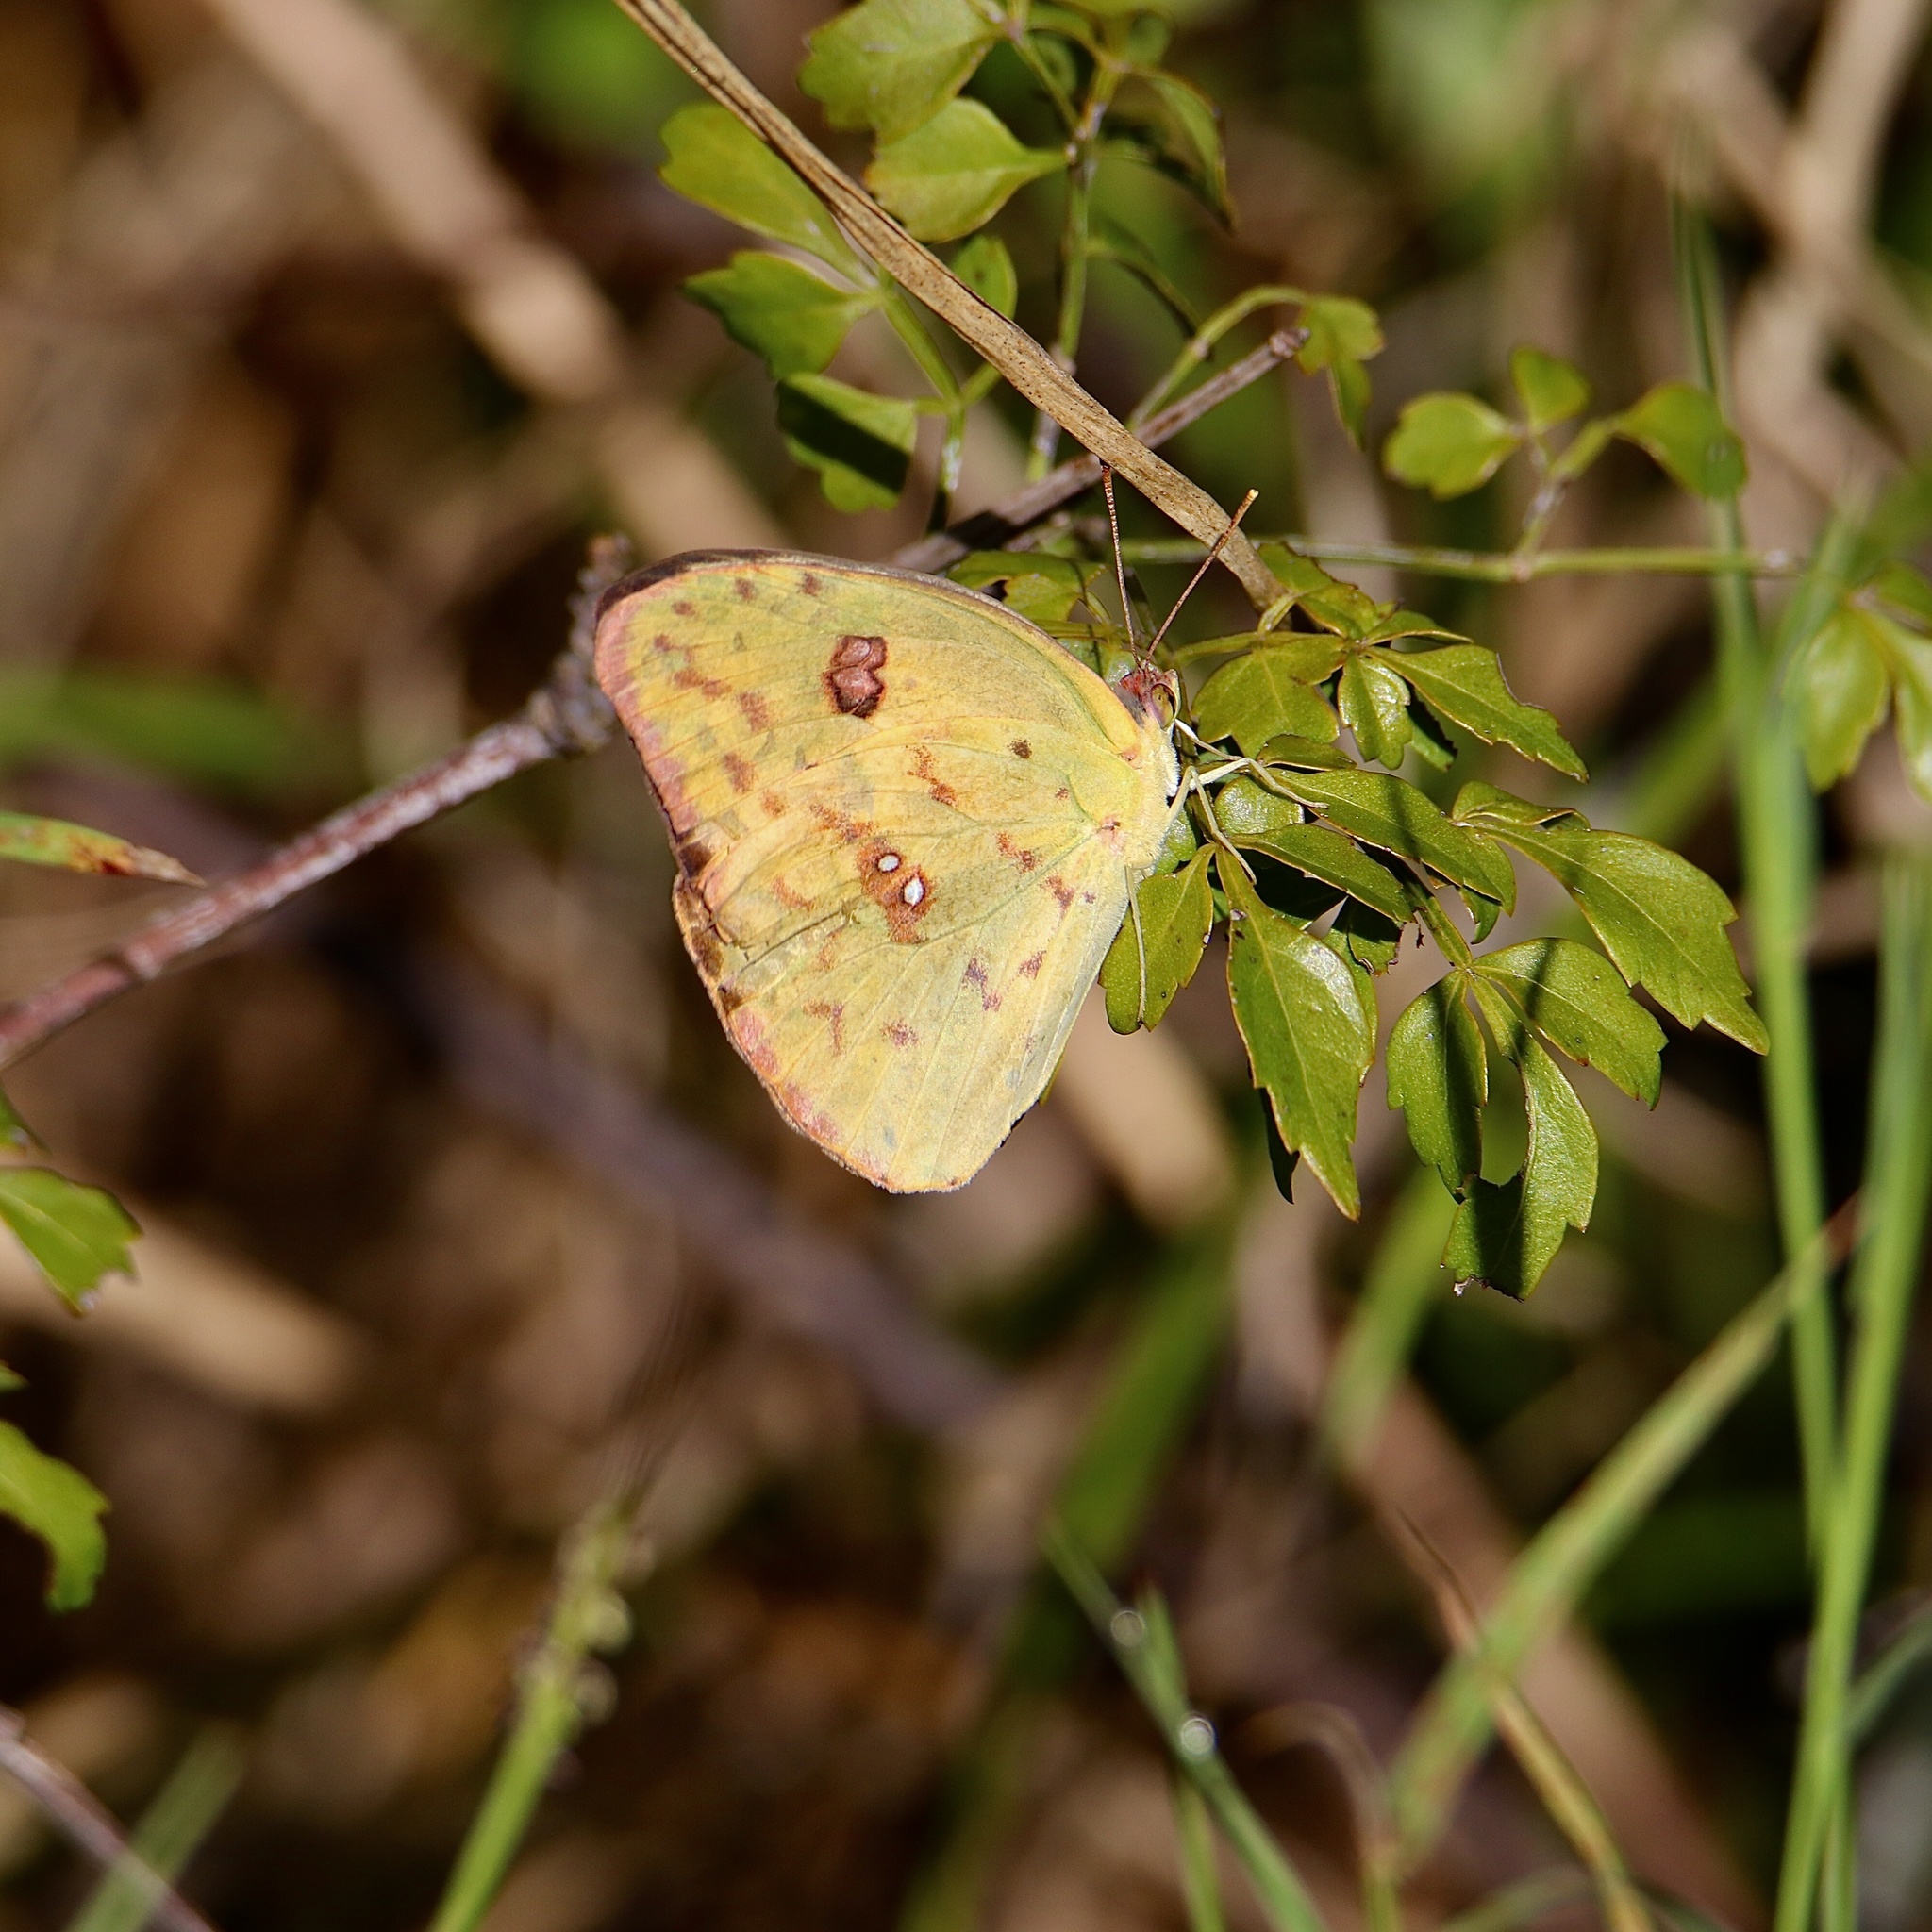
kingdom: Animalia
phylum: Arthropoda
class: Insecta
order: Lepidoptera
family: Pieridae
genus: Phoebis
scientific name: Phoebis sennae
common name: Cloudless sulphur
